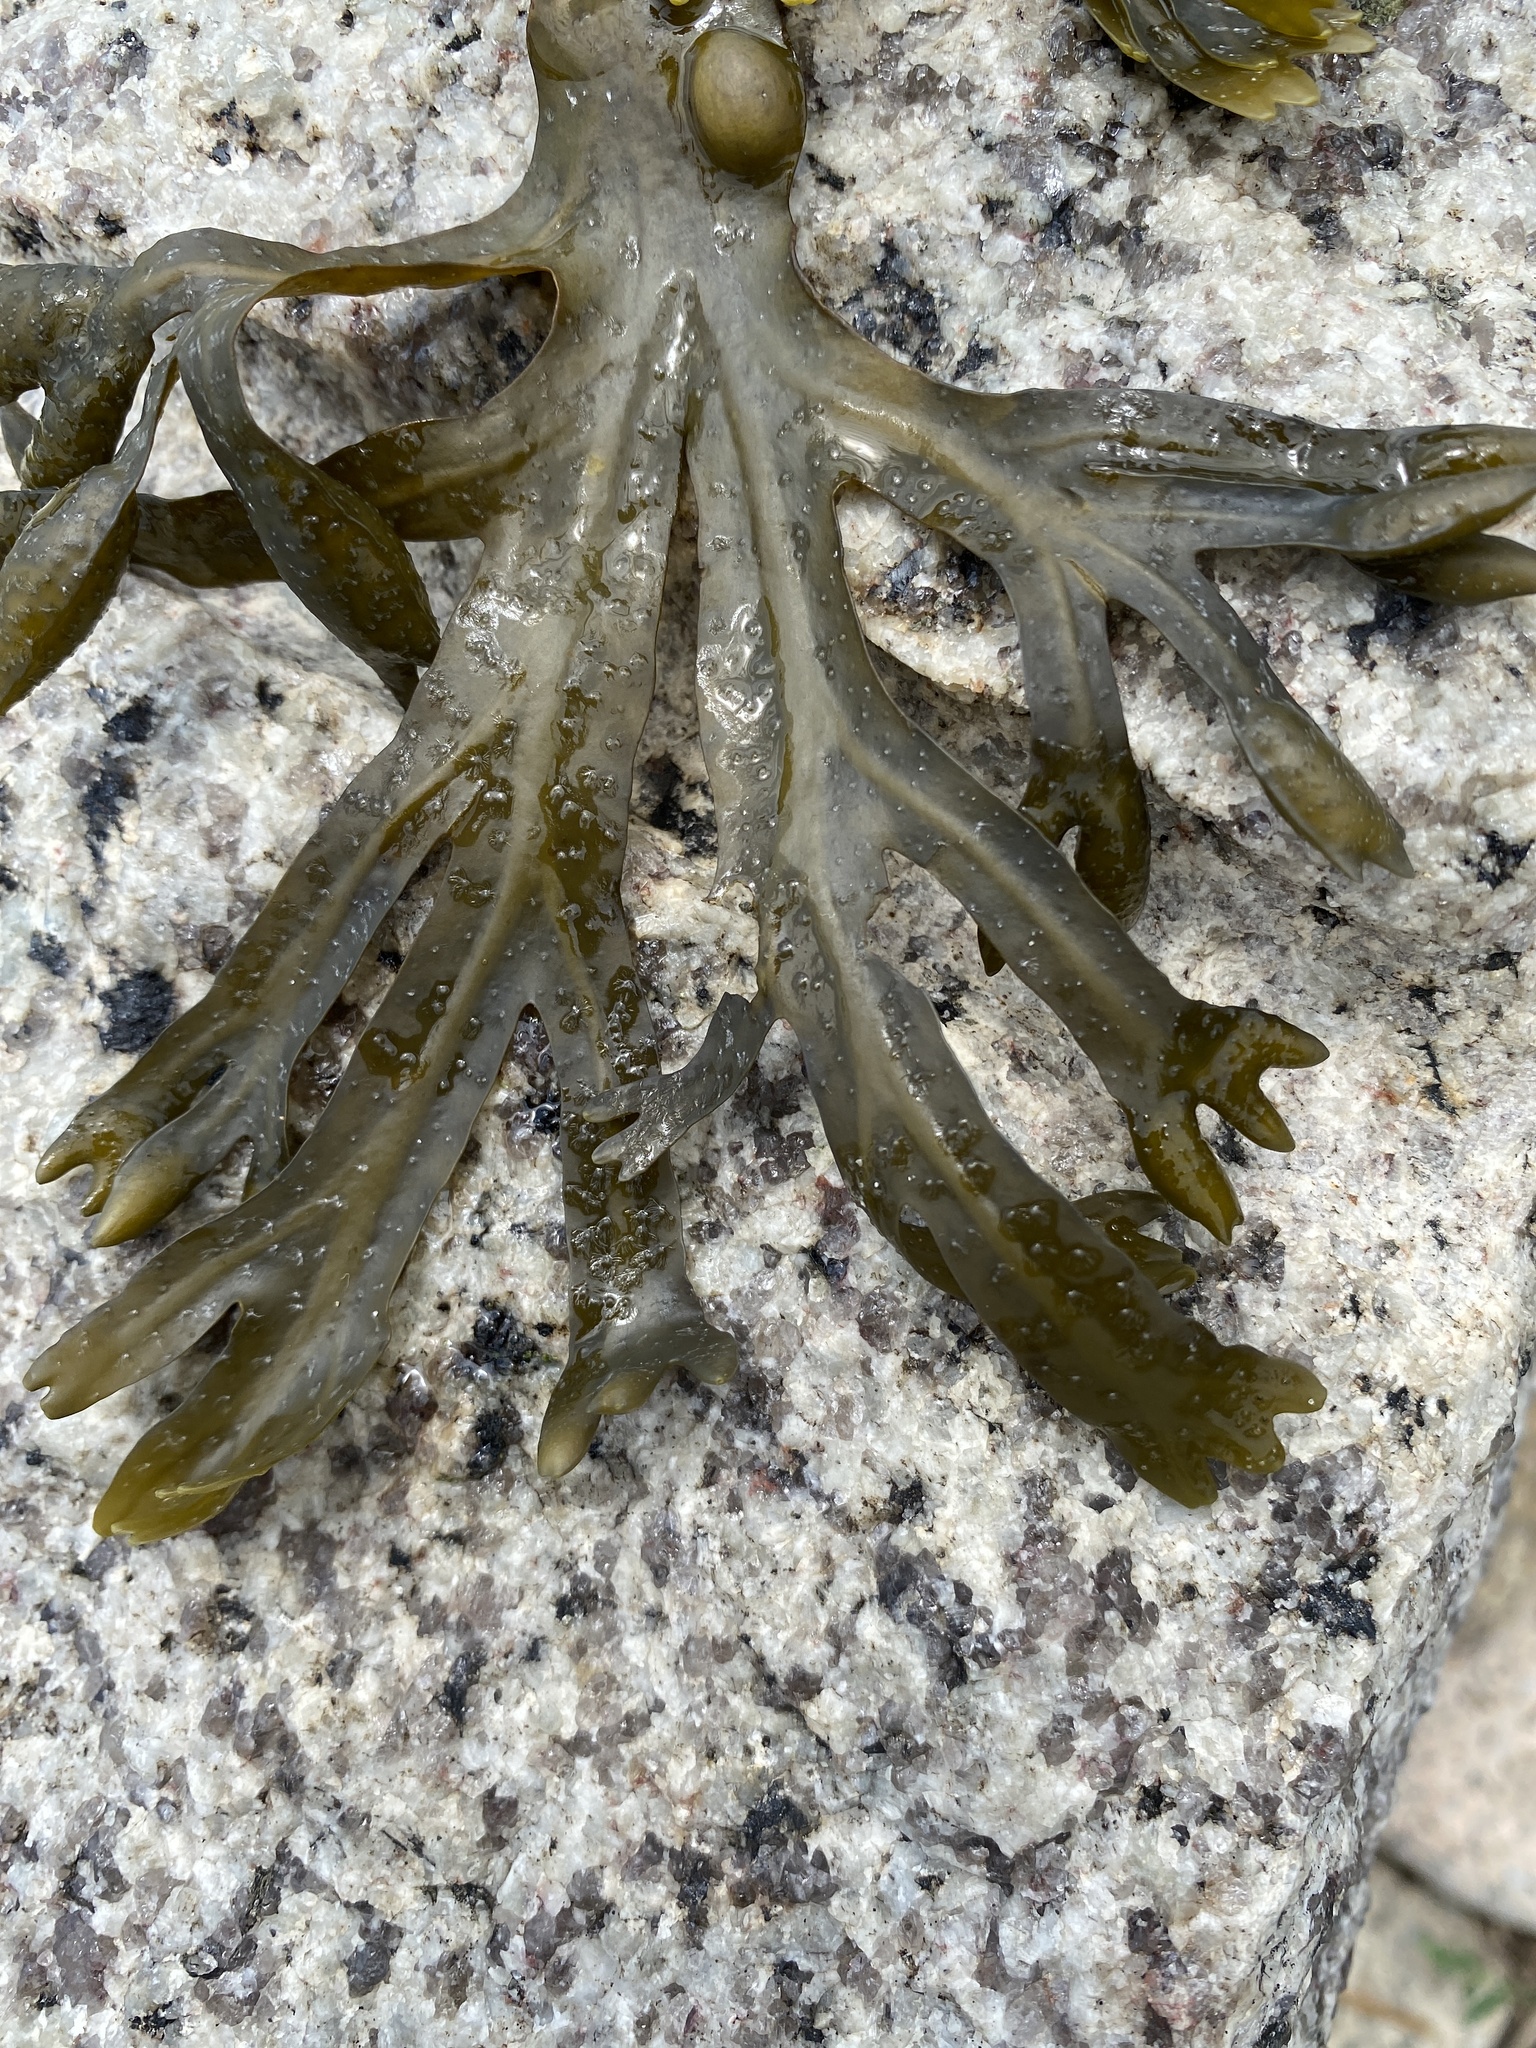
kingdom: Chromista
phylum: Ochrophyta
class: Phaeophyceae
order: Fucales
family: Fucaceae
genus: Fucus
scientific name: Fucus vesiculosus
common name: Bladder wrack
